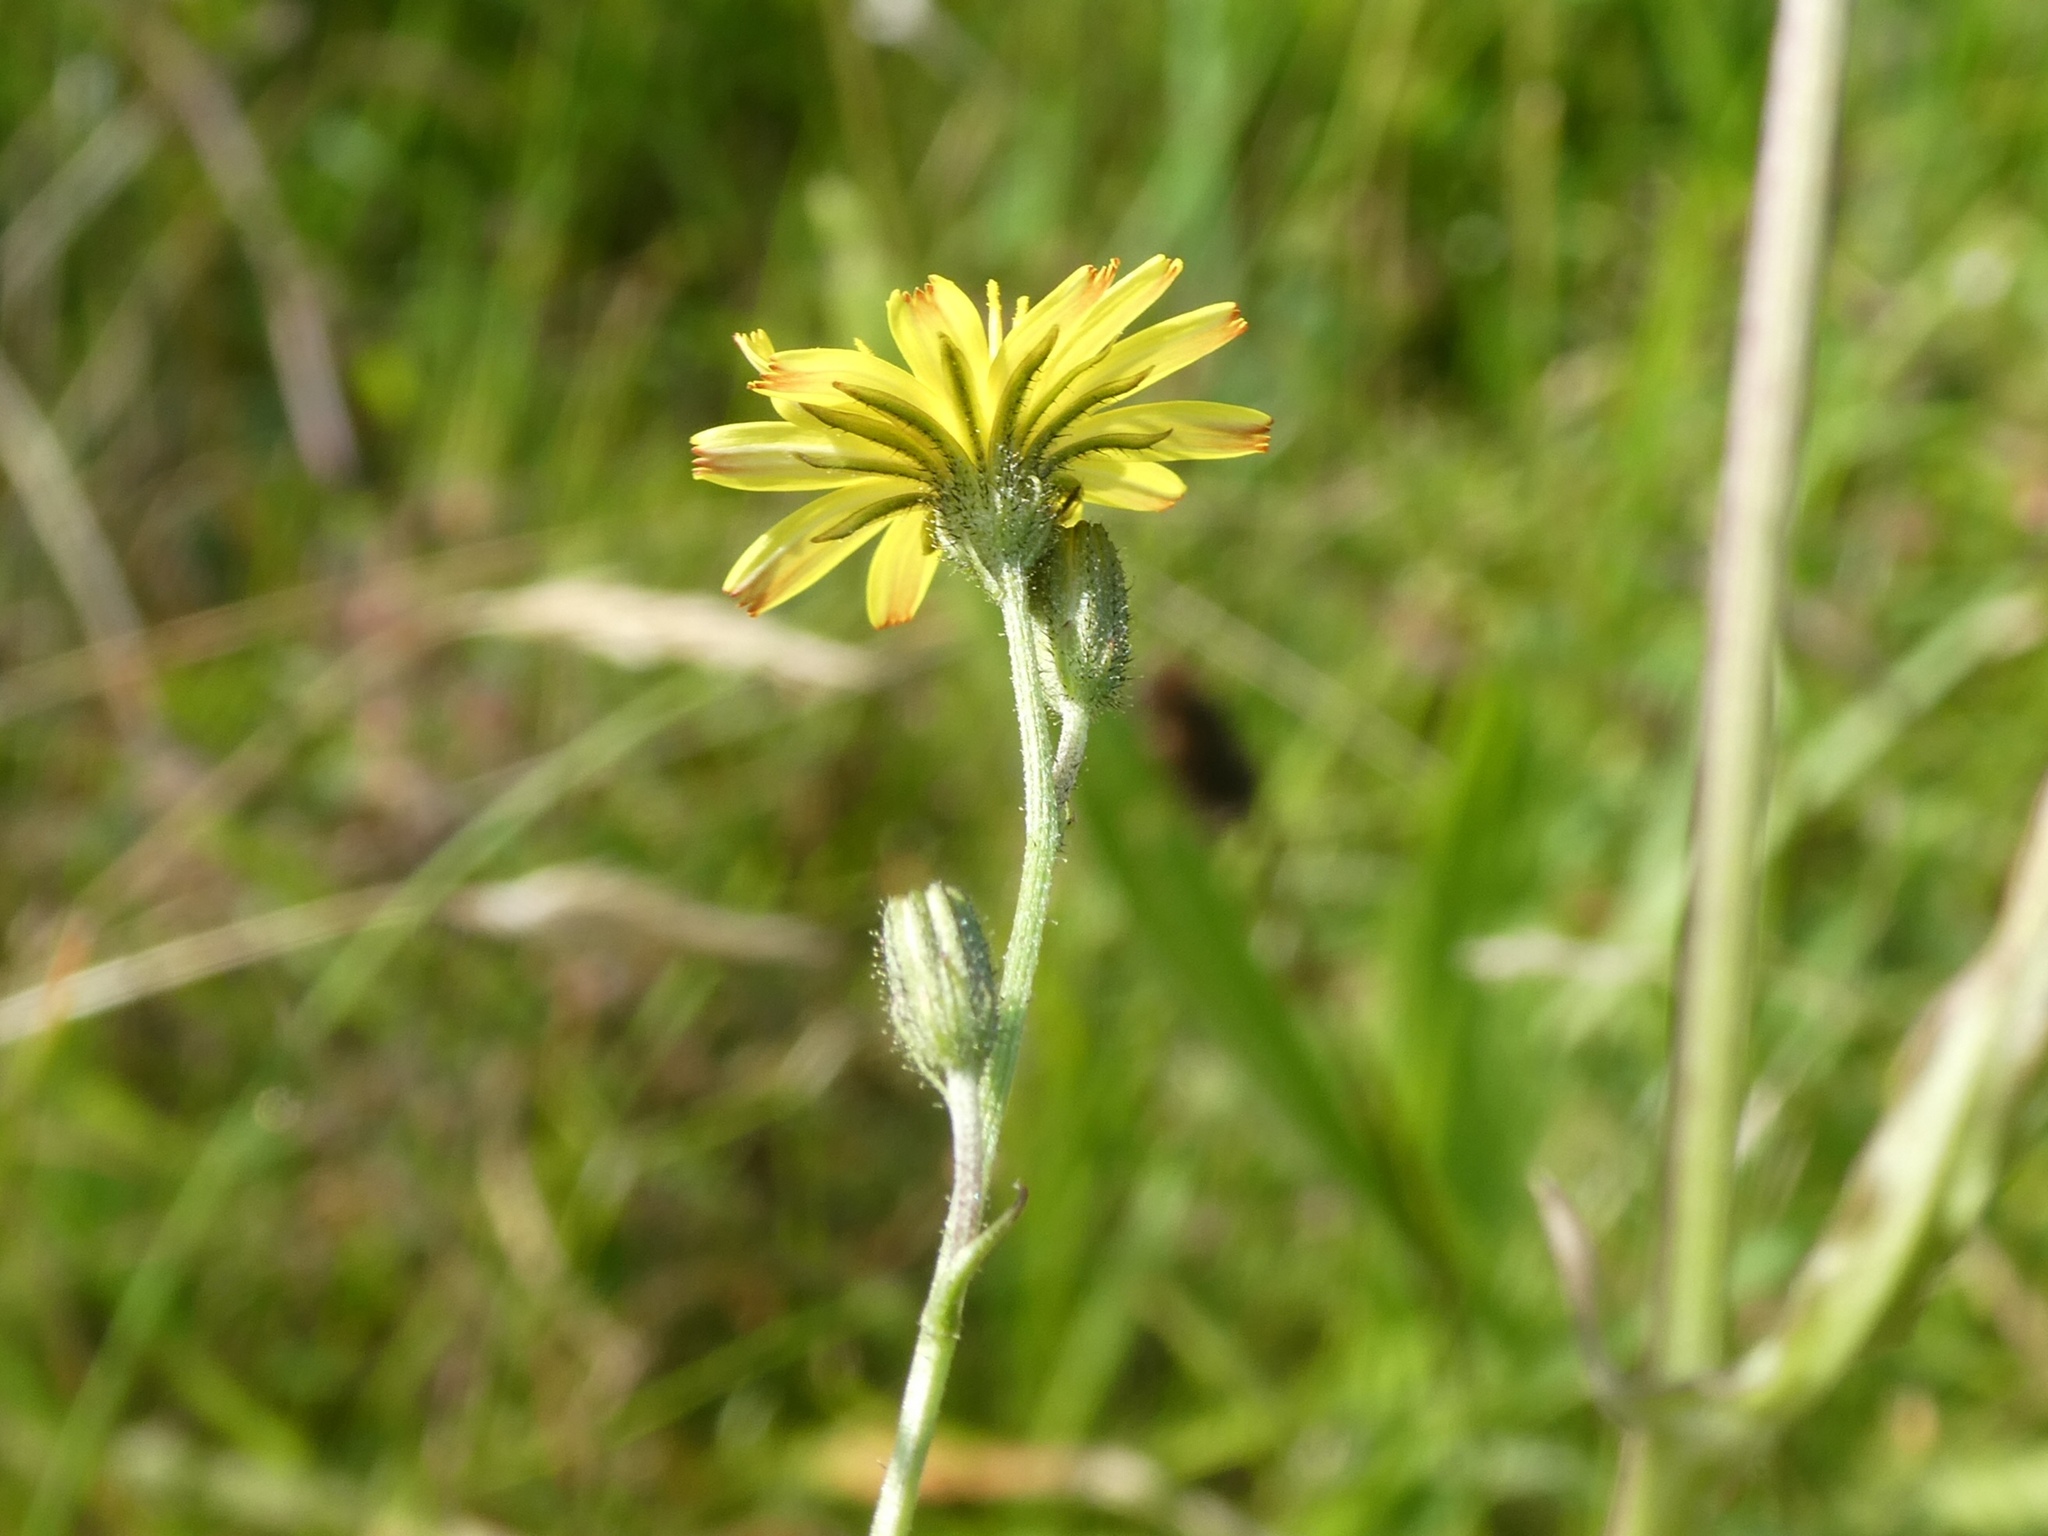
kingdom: Plantae
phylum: Tracheophyta
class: Magnoliopsida
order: Asterales
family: Asteraceae
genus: Crepis
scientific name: Crepis capillaris
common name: Smooth hawksbeard
